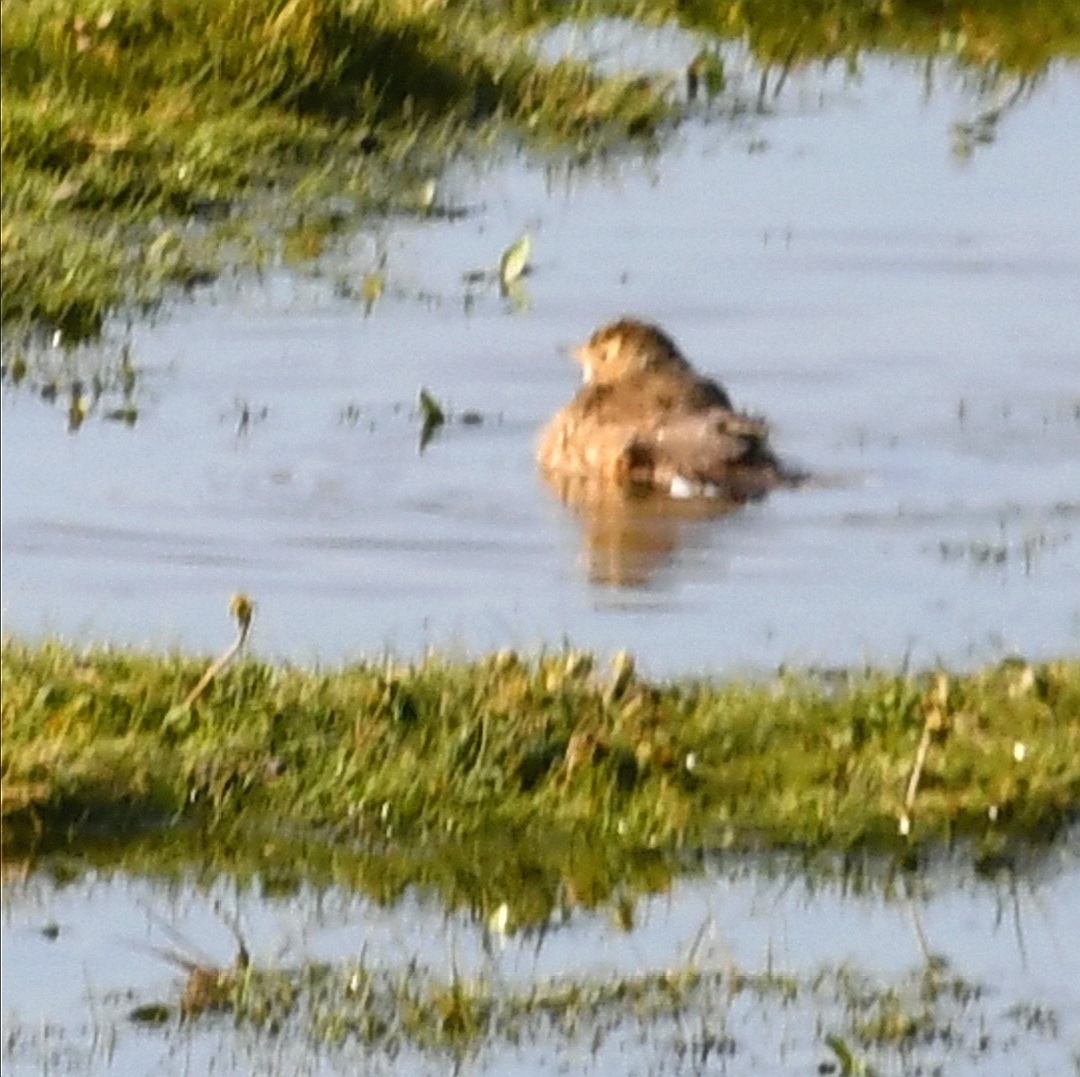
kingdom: Animalia
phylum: Chordata
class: Aves
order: Passeriformes
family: Motacillidae
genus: Anthus
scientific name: Anthus rubescens
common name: Buff-bellied pipit
